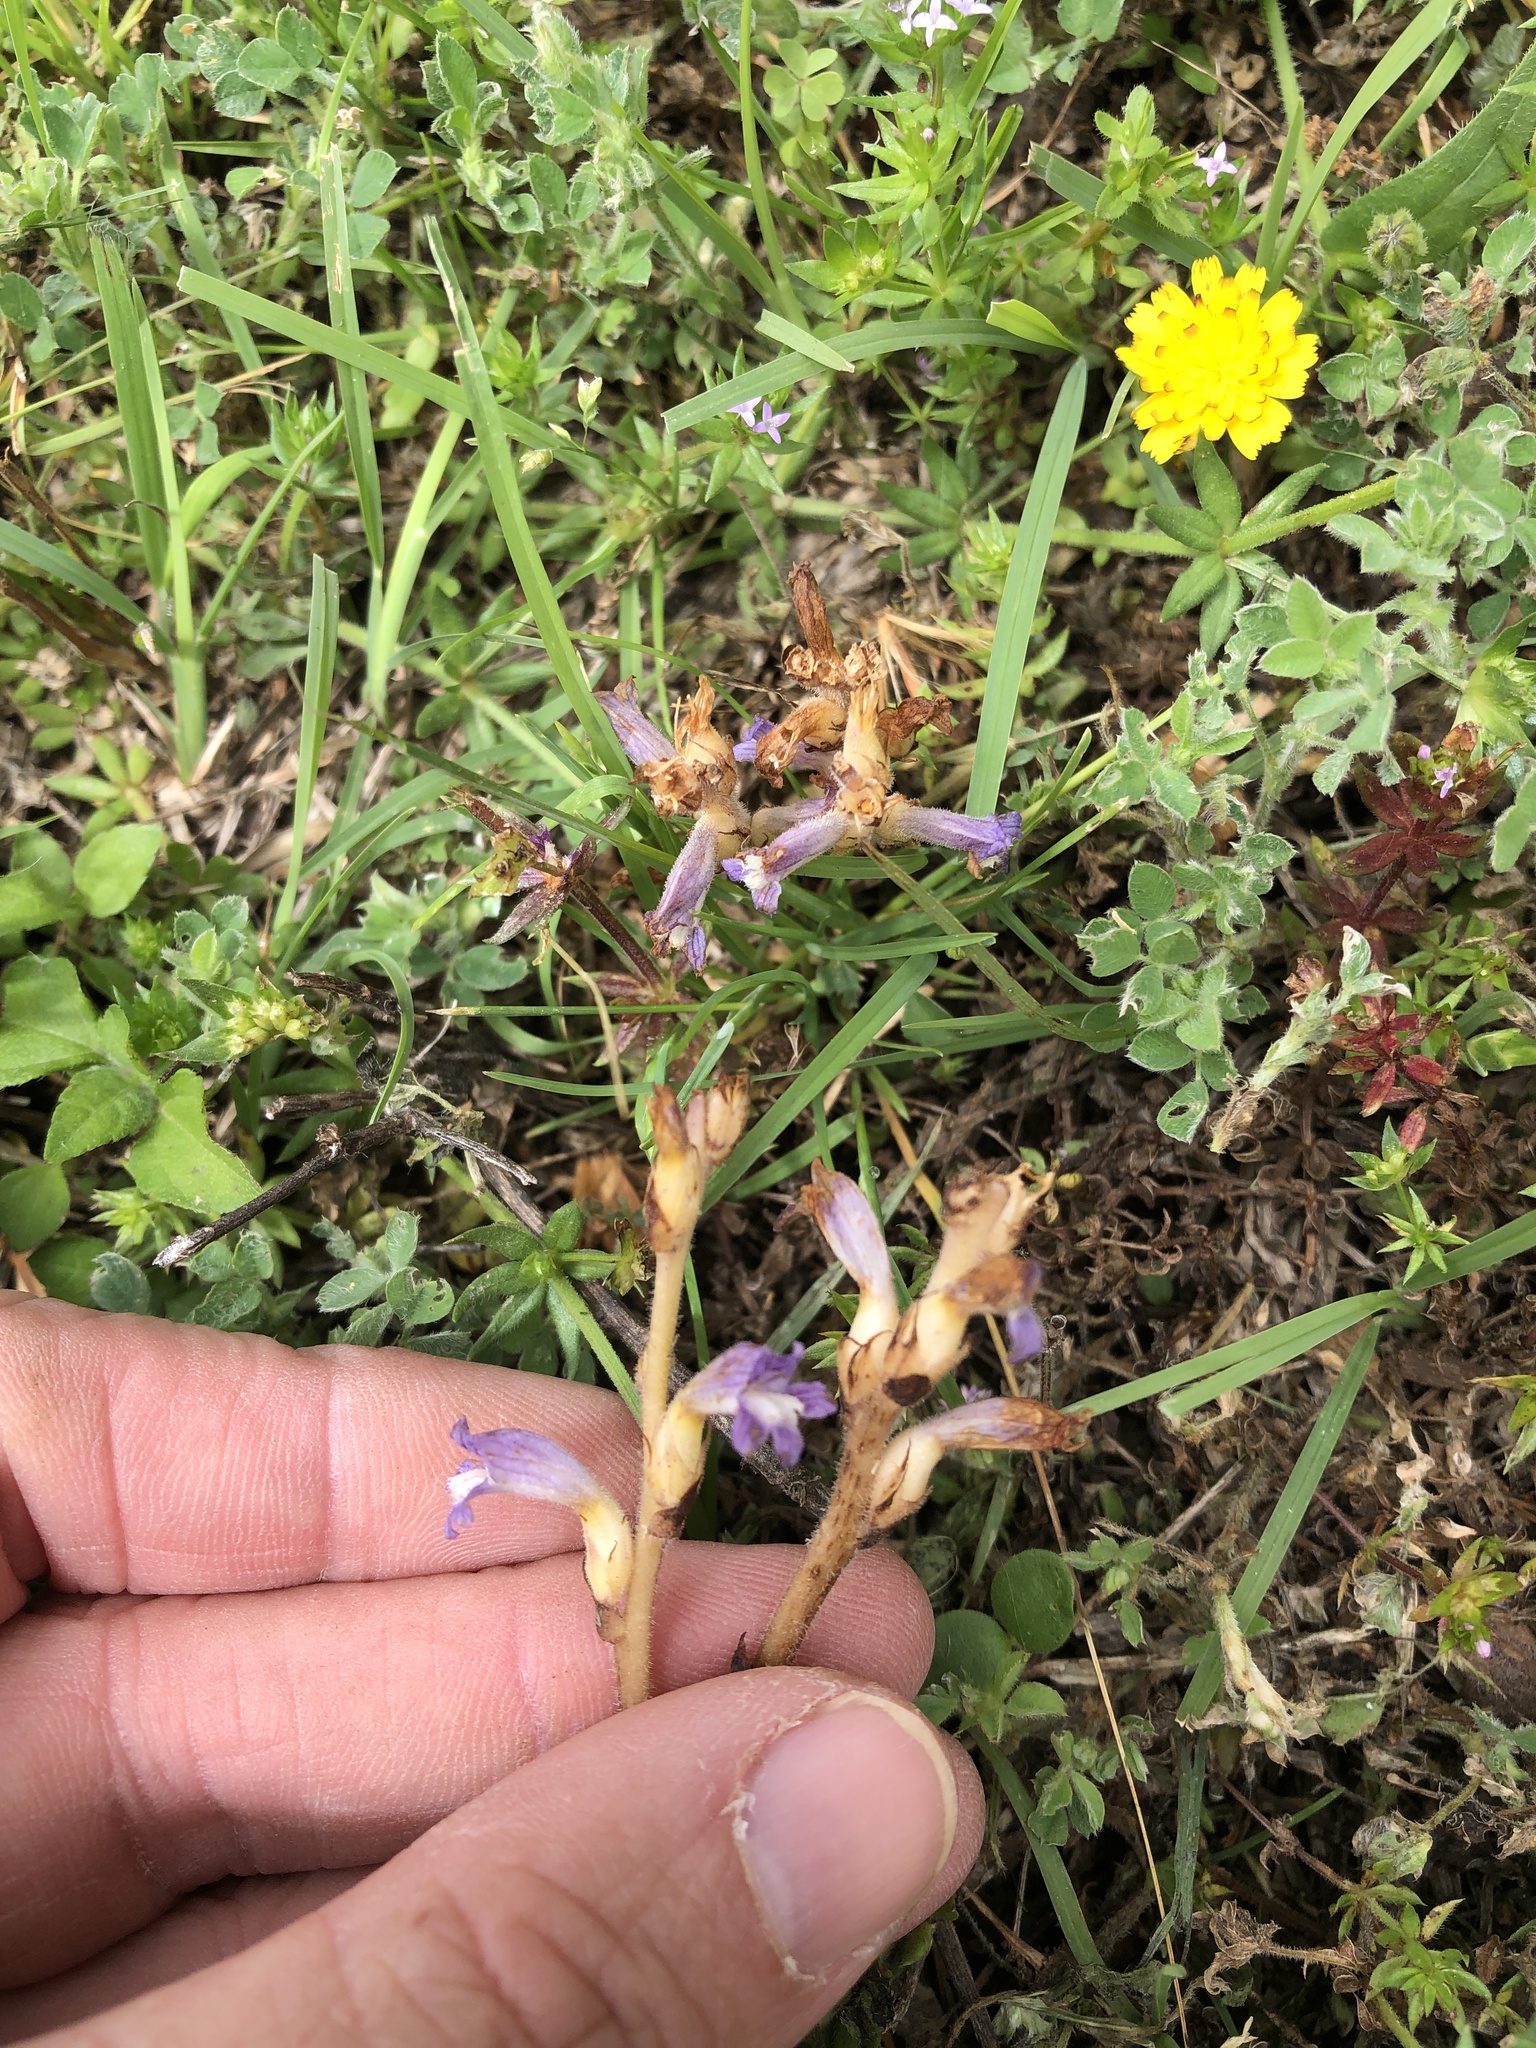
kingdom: Plantae
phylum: Tracheophyta
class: Magnoliopsida
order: Lamiales
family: Orobanchaceae
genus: Phelipanche
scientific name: Phelipanche mutelii
